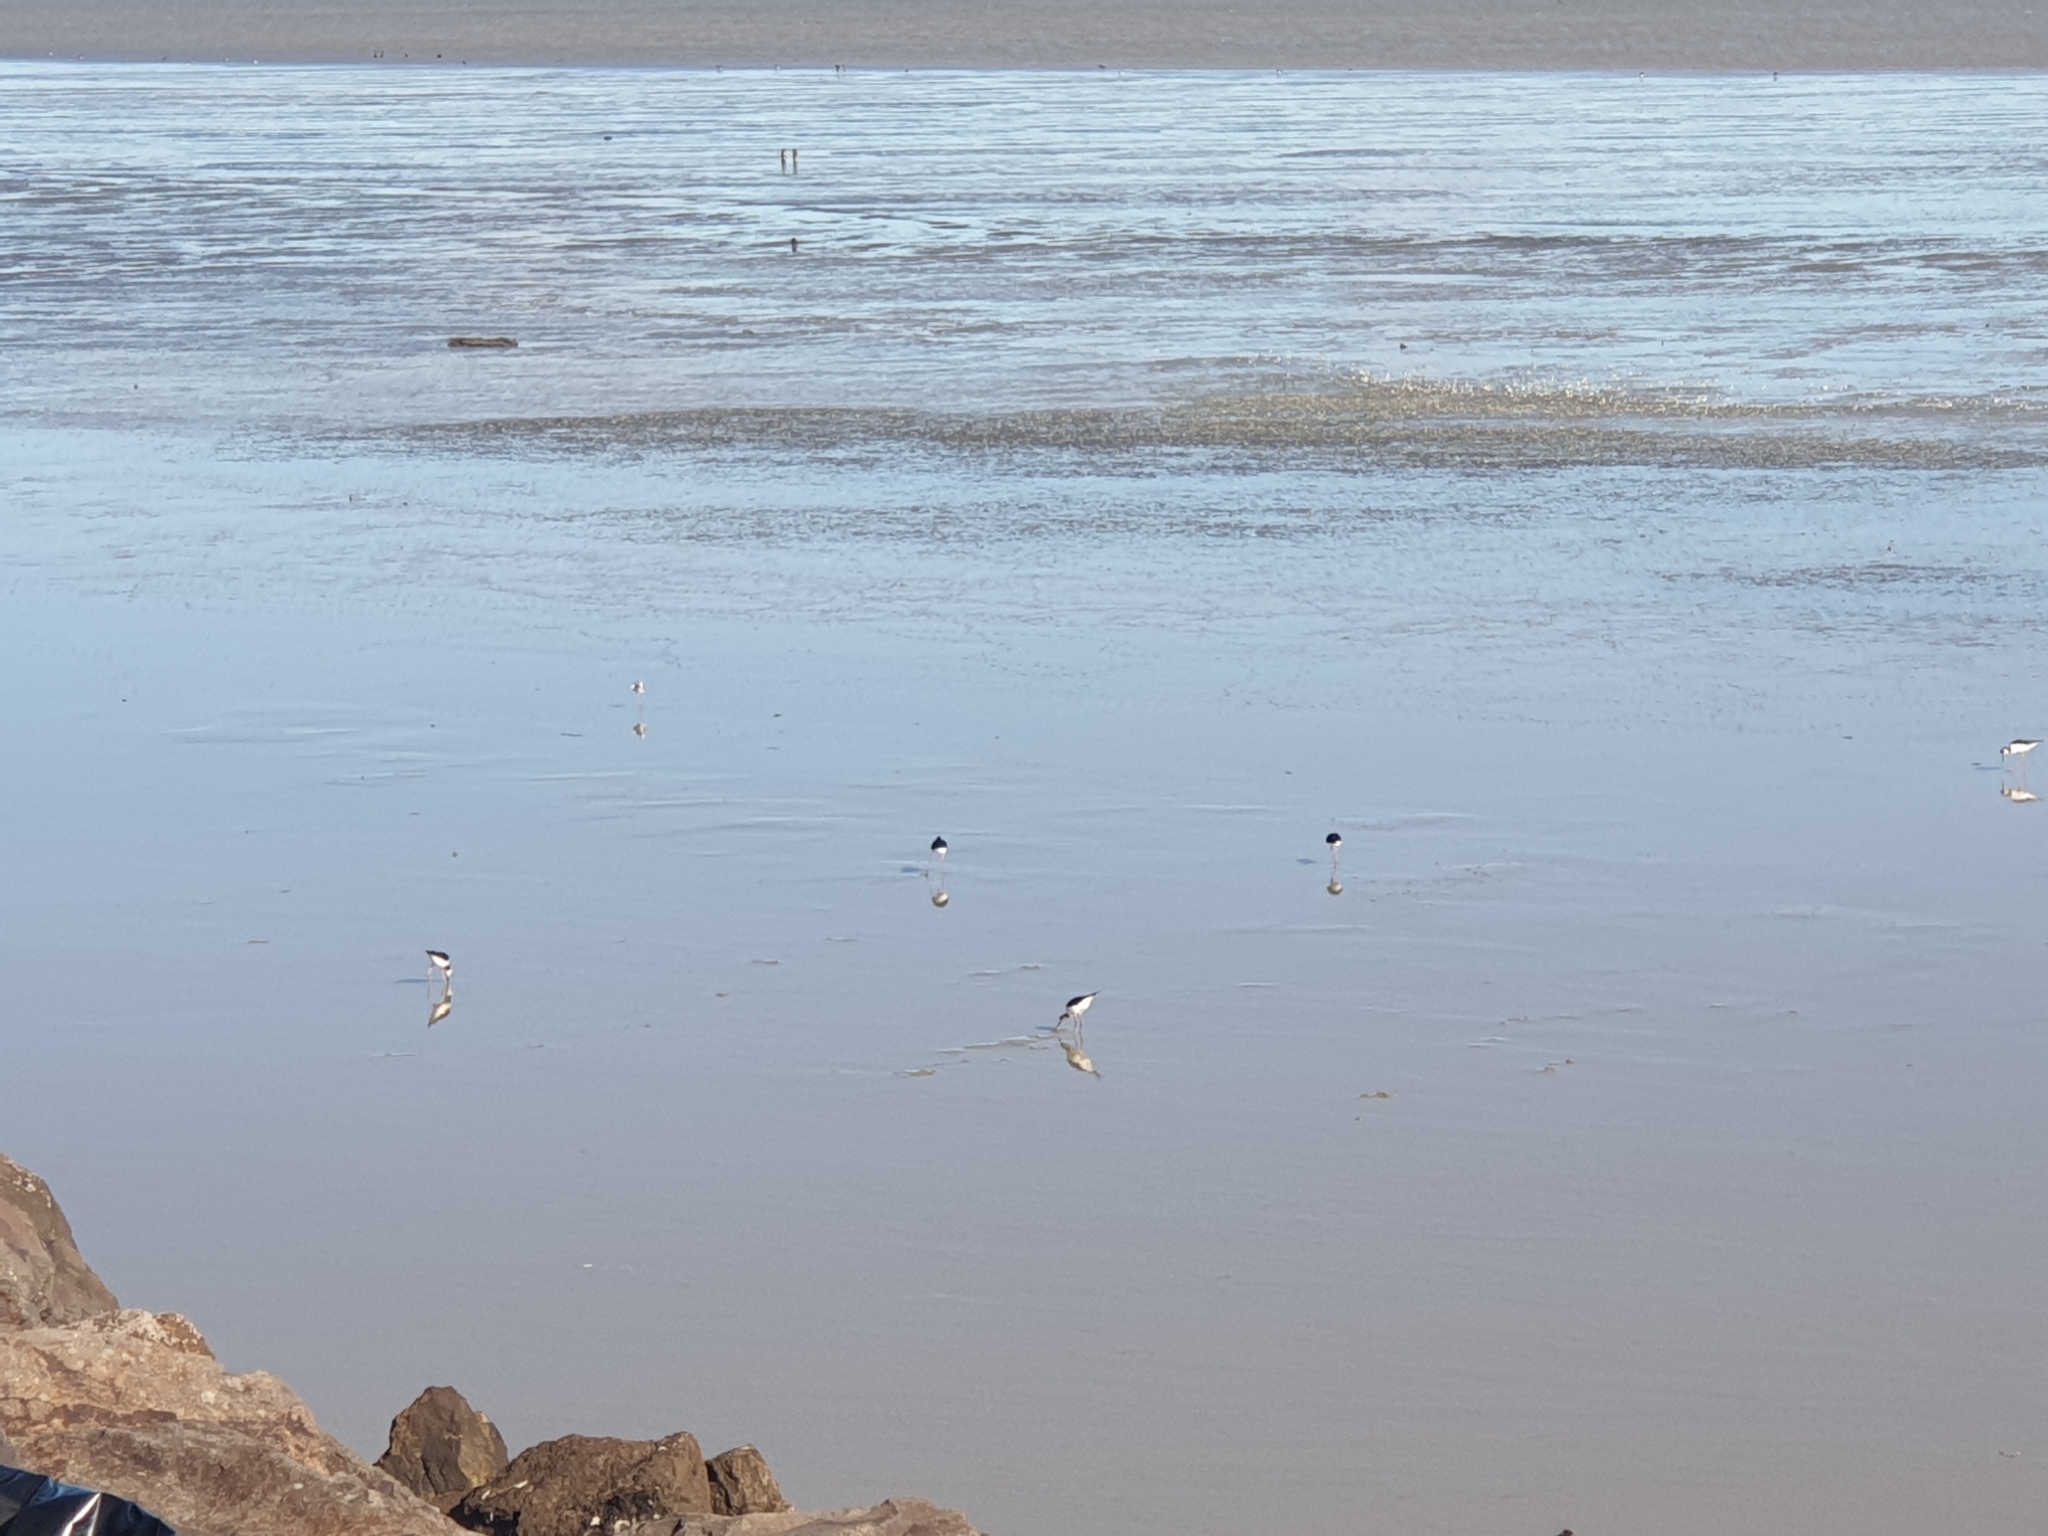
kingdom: Animalia
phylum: Chordata
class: Aves
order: Charadriiformes
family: Recurvirostridae
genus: Himantopus
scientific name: Himantopus leucocephalus
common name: White-headed stilt
